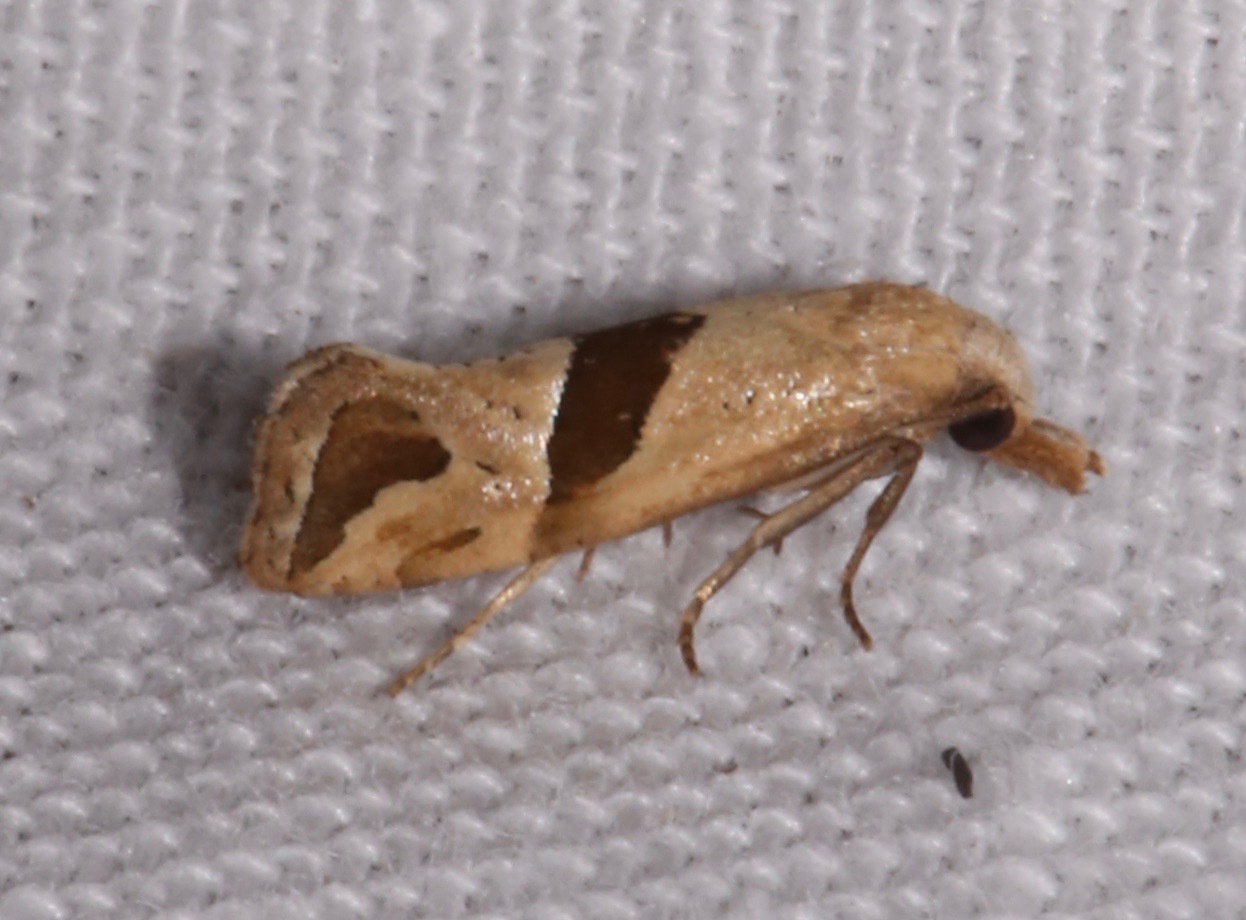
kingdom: Animalia
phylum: Arthropoda
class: Insecta
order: Lepidoptera
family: Tortricidae
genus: Eugnosta
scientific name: Eugnosta sartana
